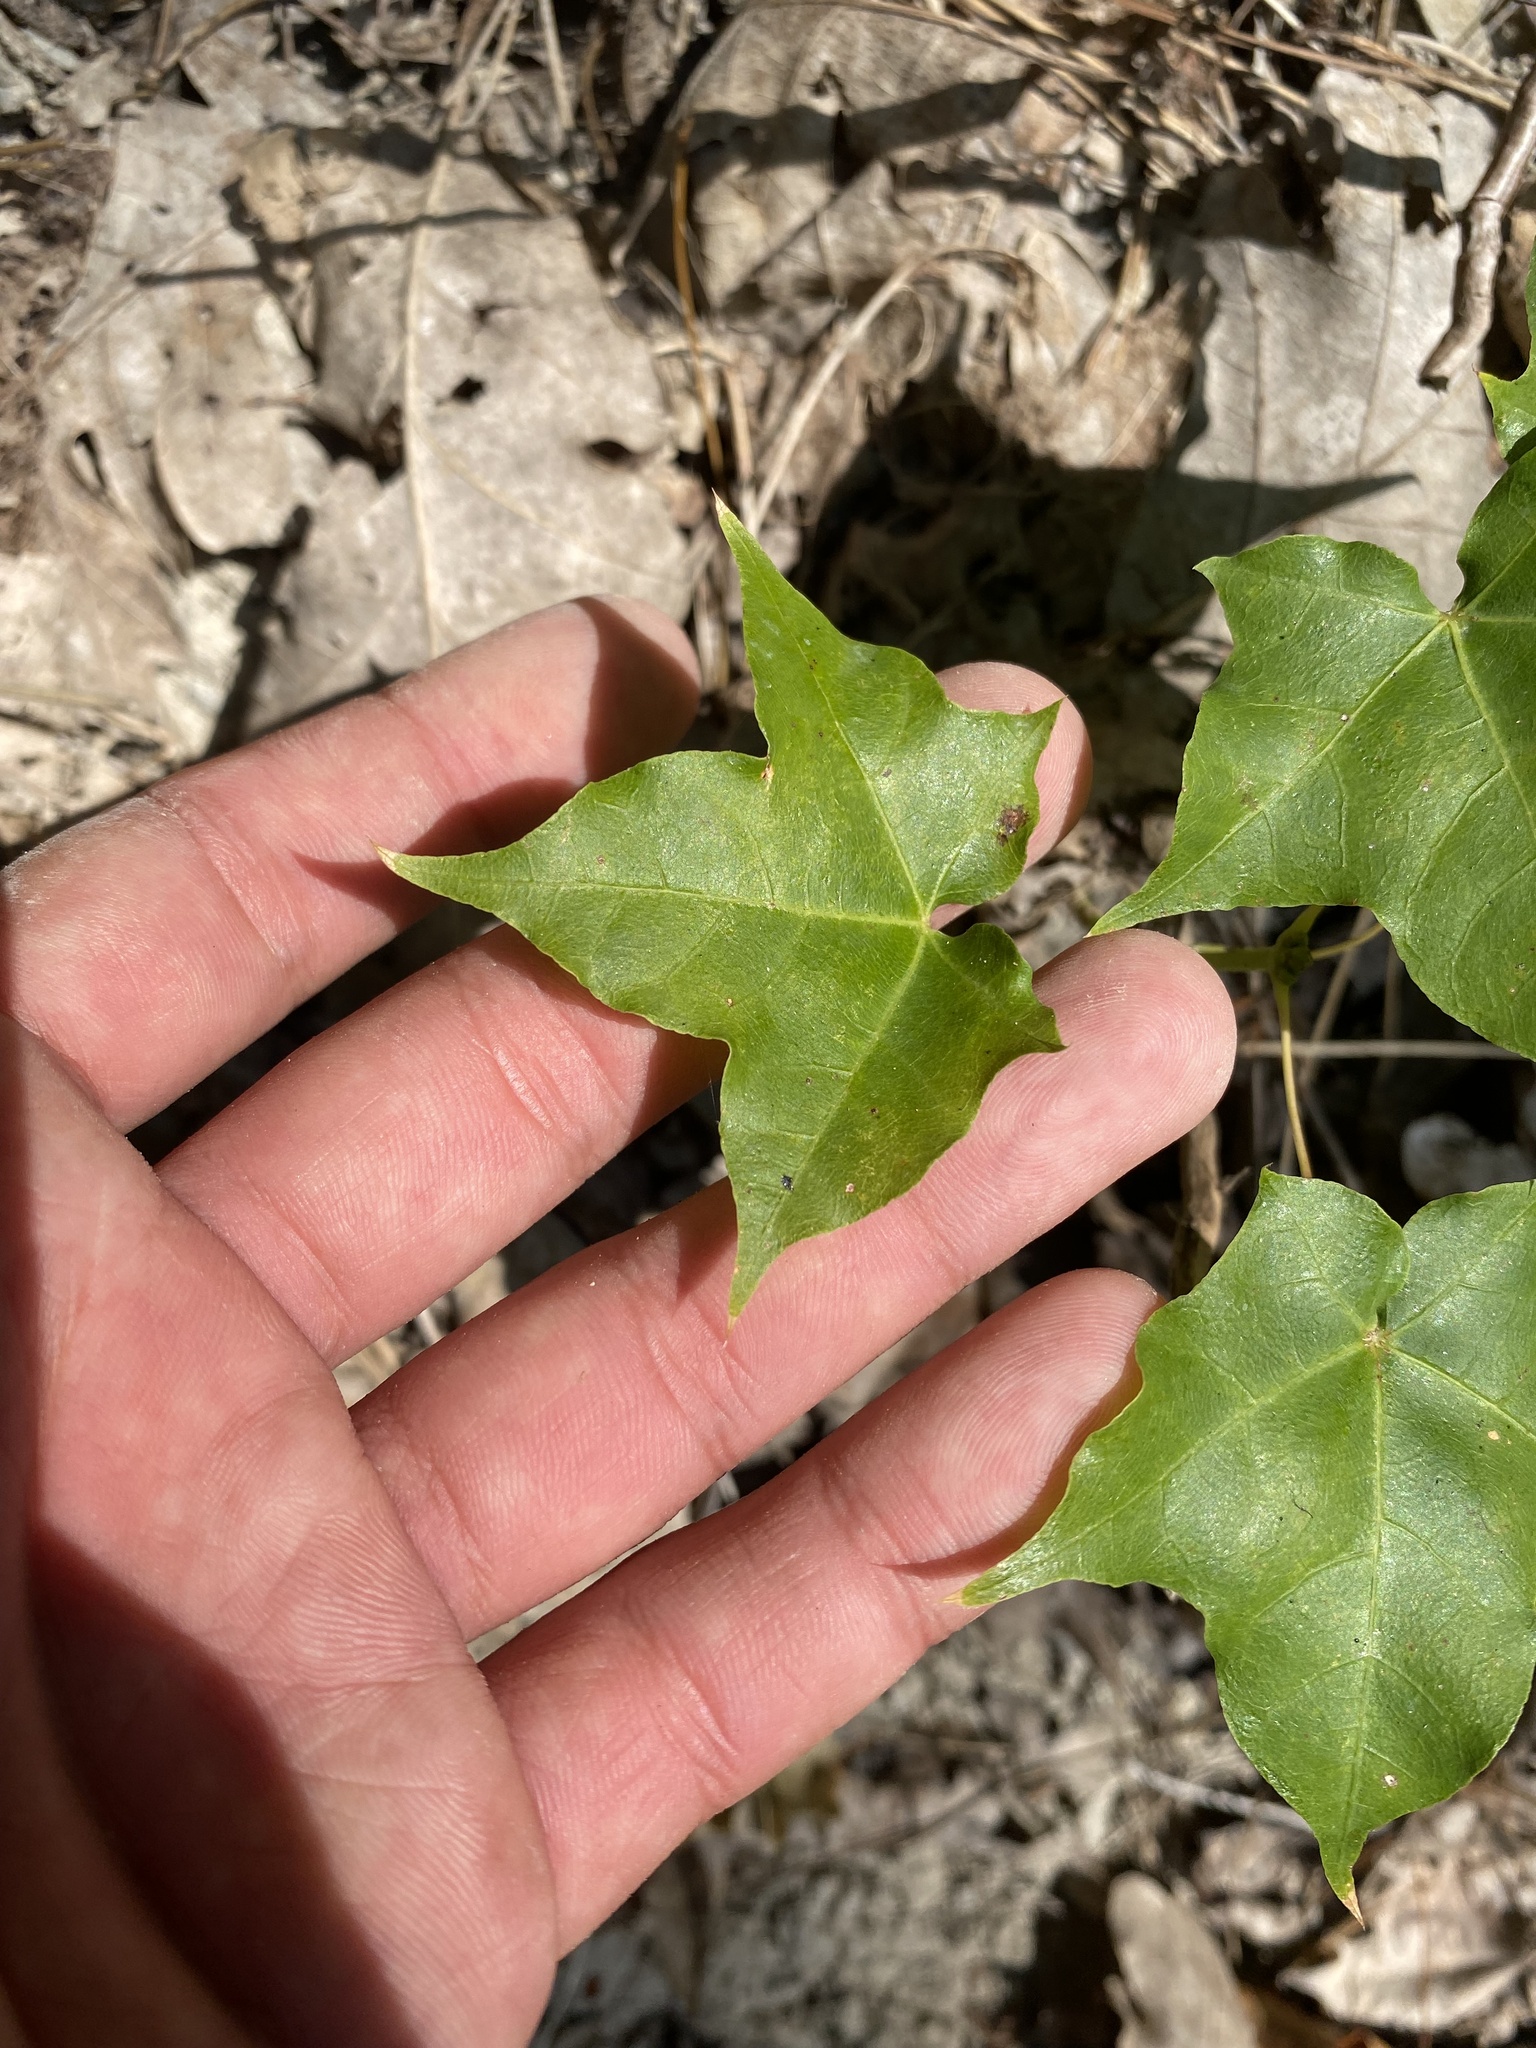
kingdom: Plantae
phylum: Tracheophyta
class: Magnoliopsida
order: Sapindales
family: Sapindaceae
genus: Acer
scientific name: Acer cappadocicum
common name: Cappadocian maple
